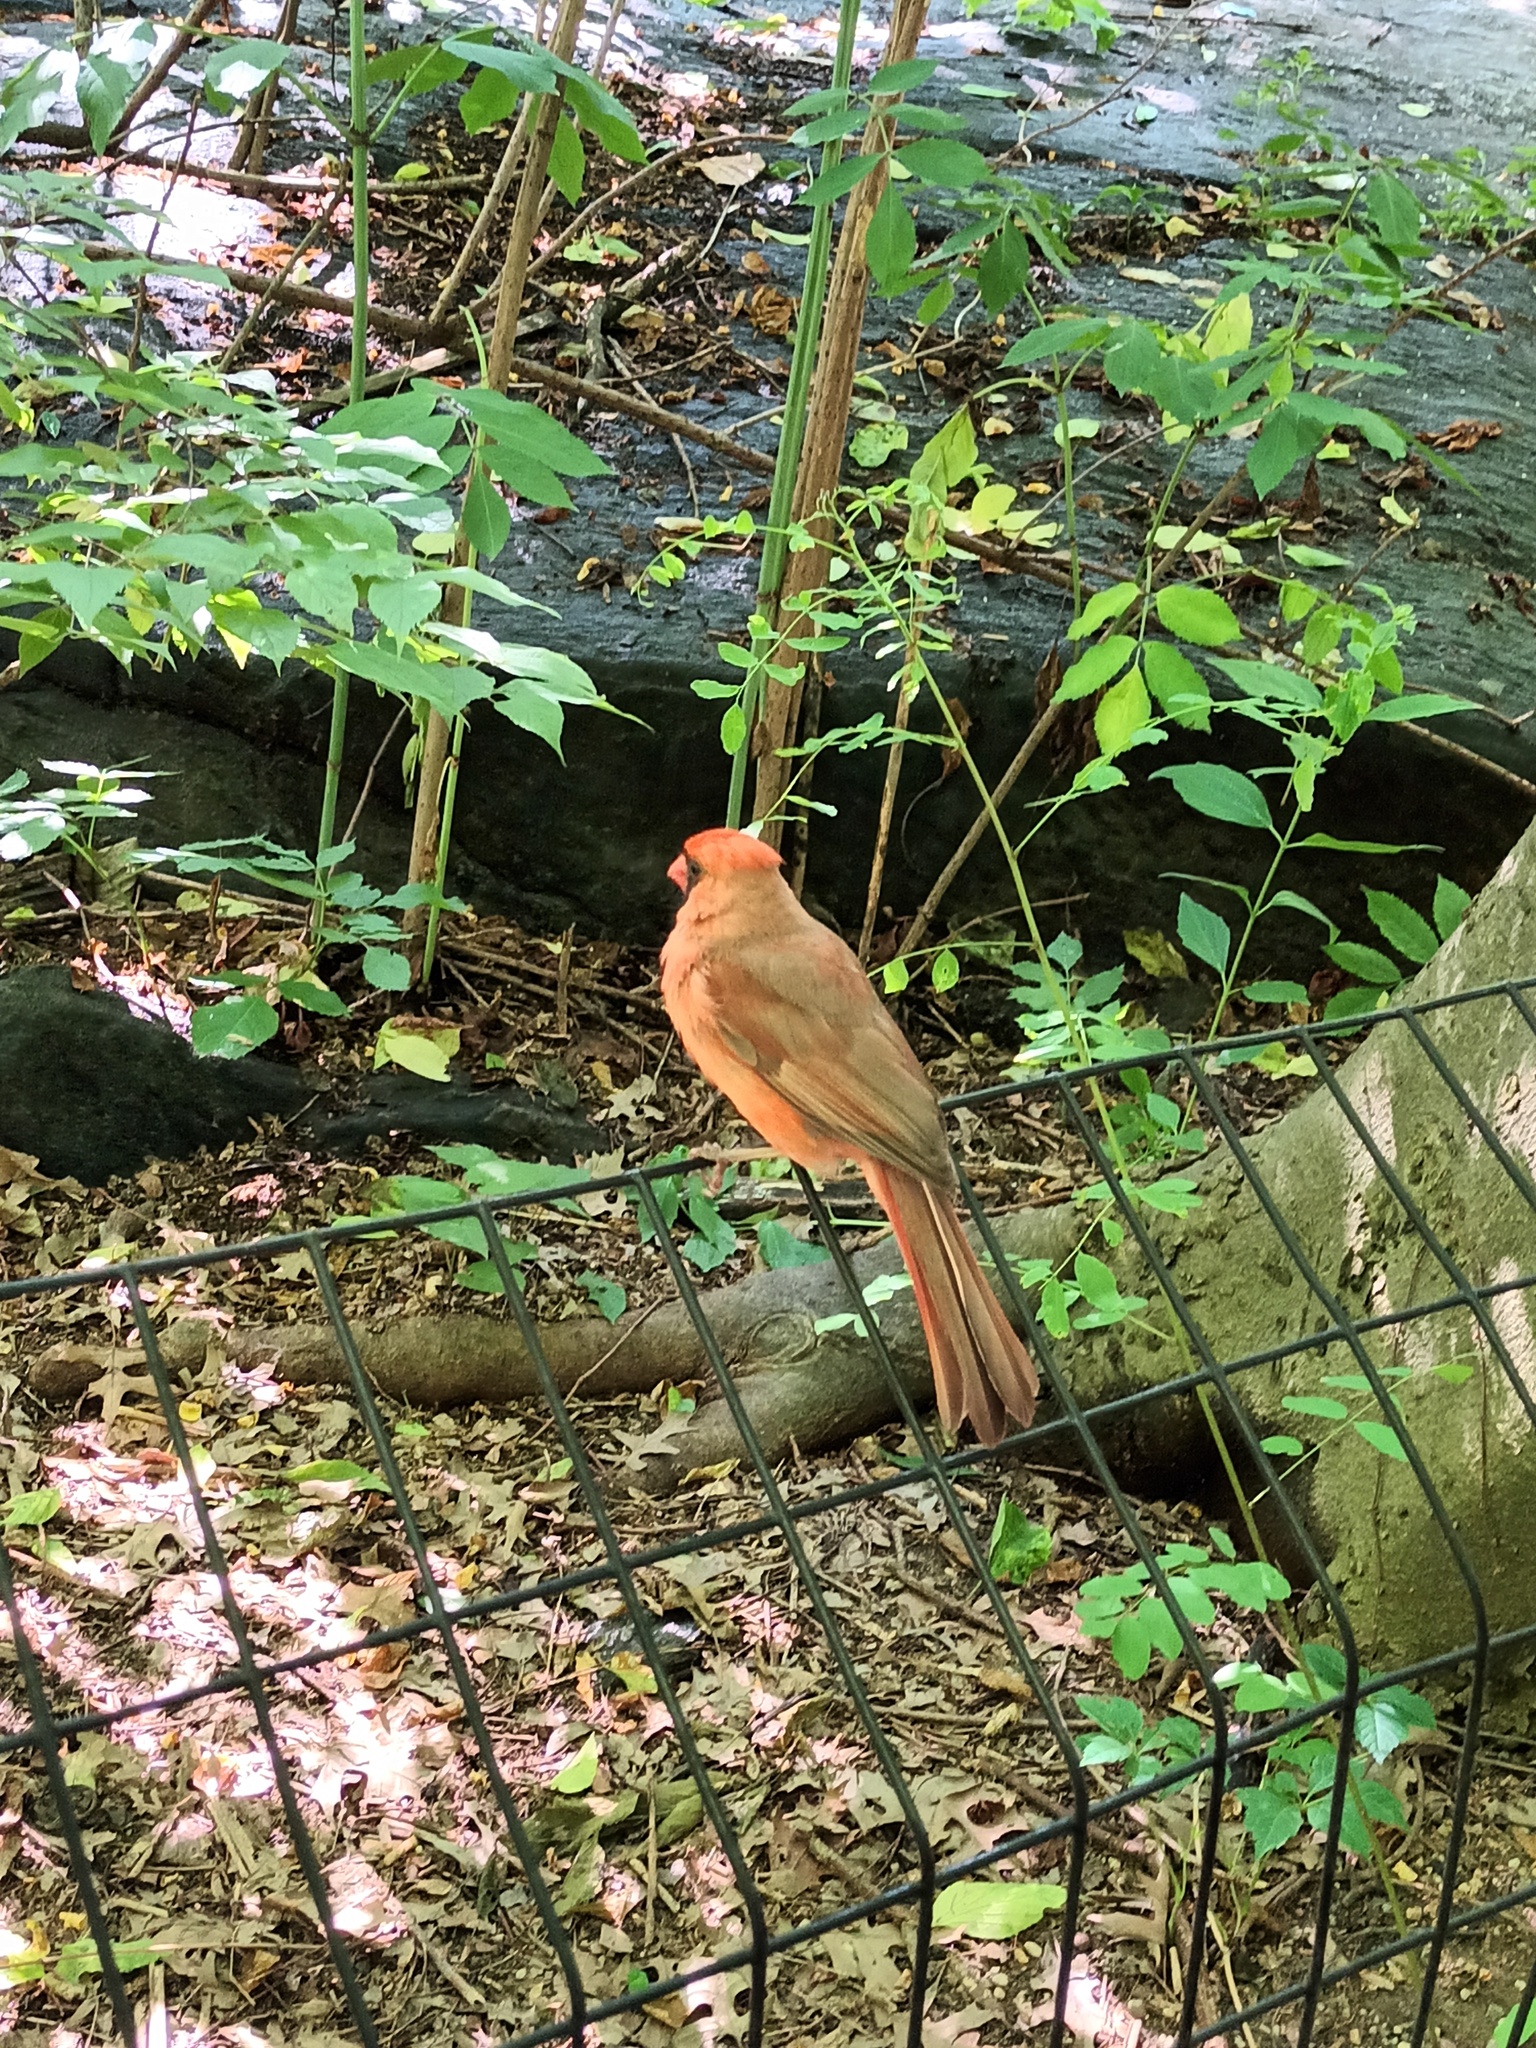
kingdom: Animalia
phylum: Chordata
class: Aves
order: Passeriformes
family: Cardinalidae
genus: Cardinalis
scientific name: Cardinalis cardinalis
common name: Northern cardinal
